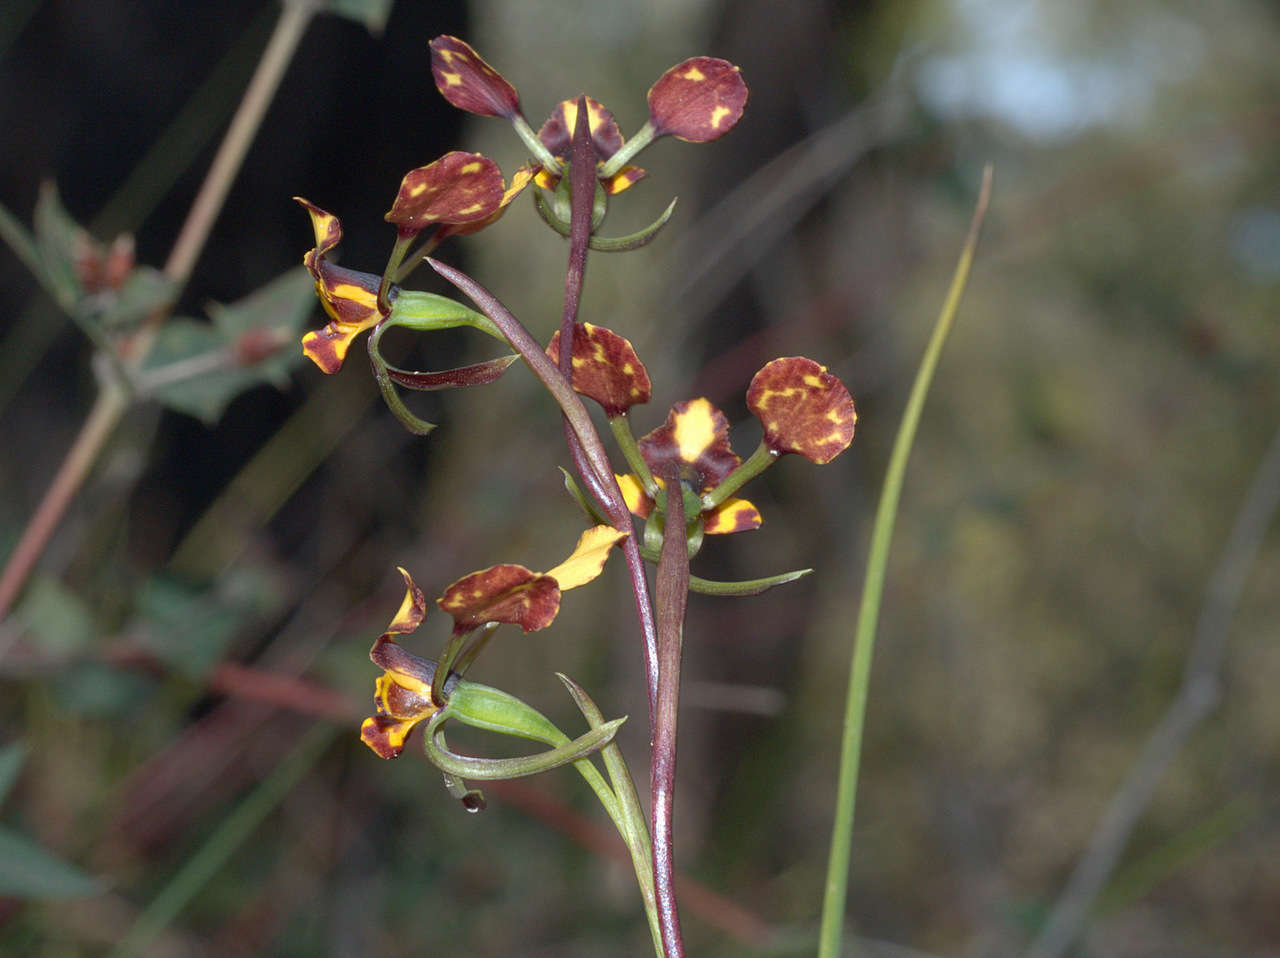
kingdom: Plantae
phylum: Tracheophyta
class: Liliopsida
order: Asparagales
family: Orchidaceae
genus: Diuris
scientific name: Diuris pardina
